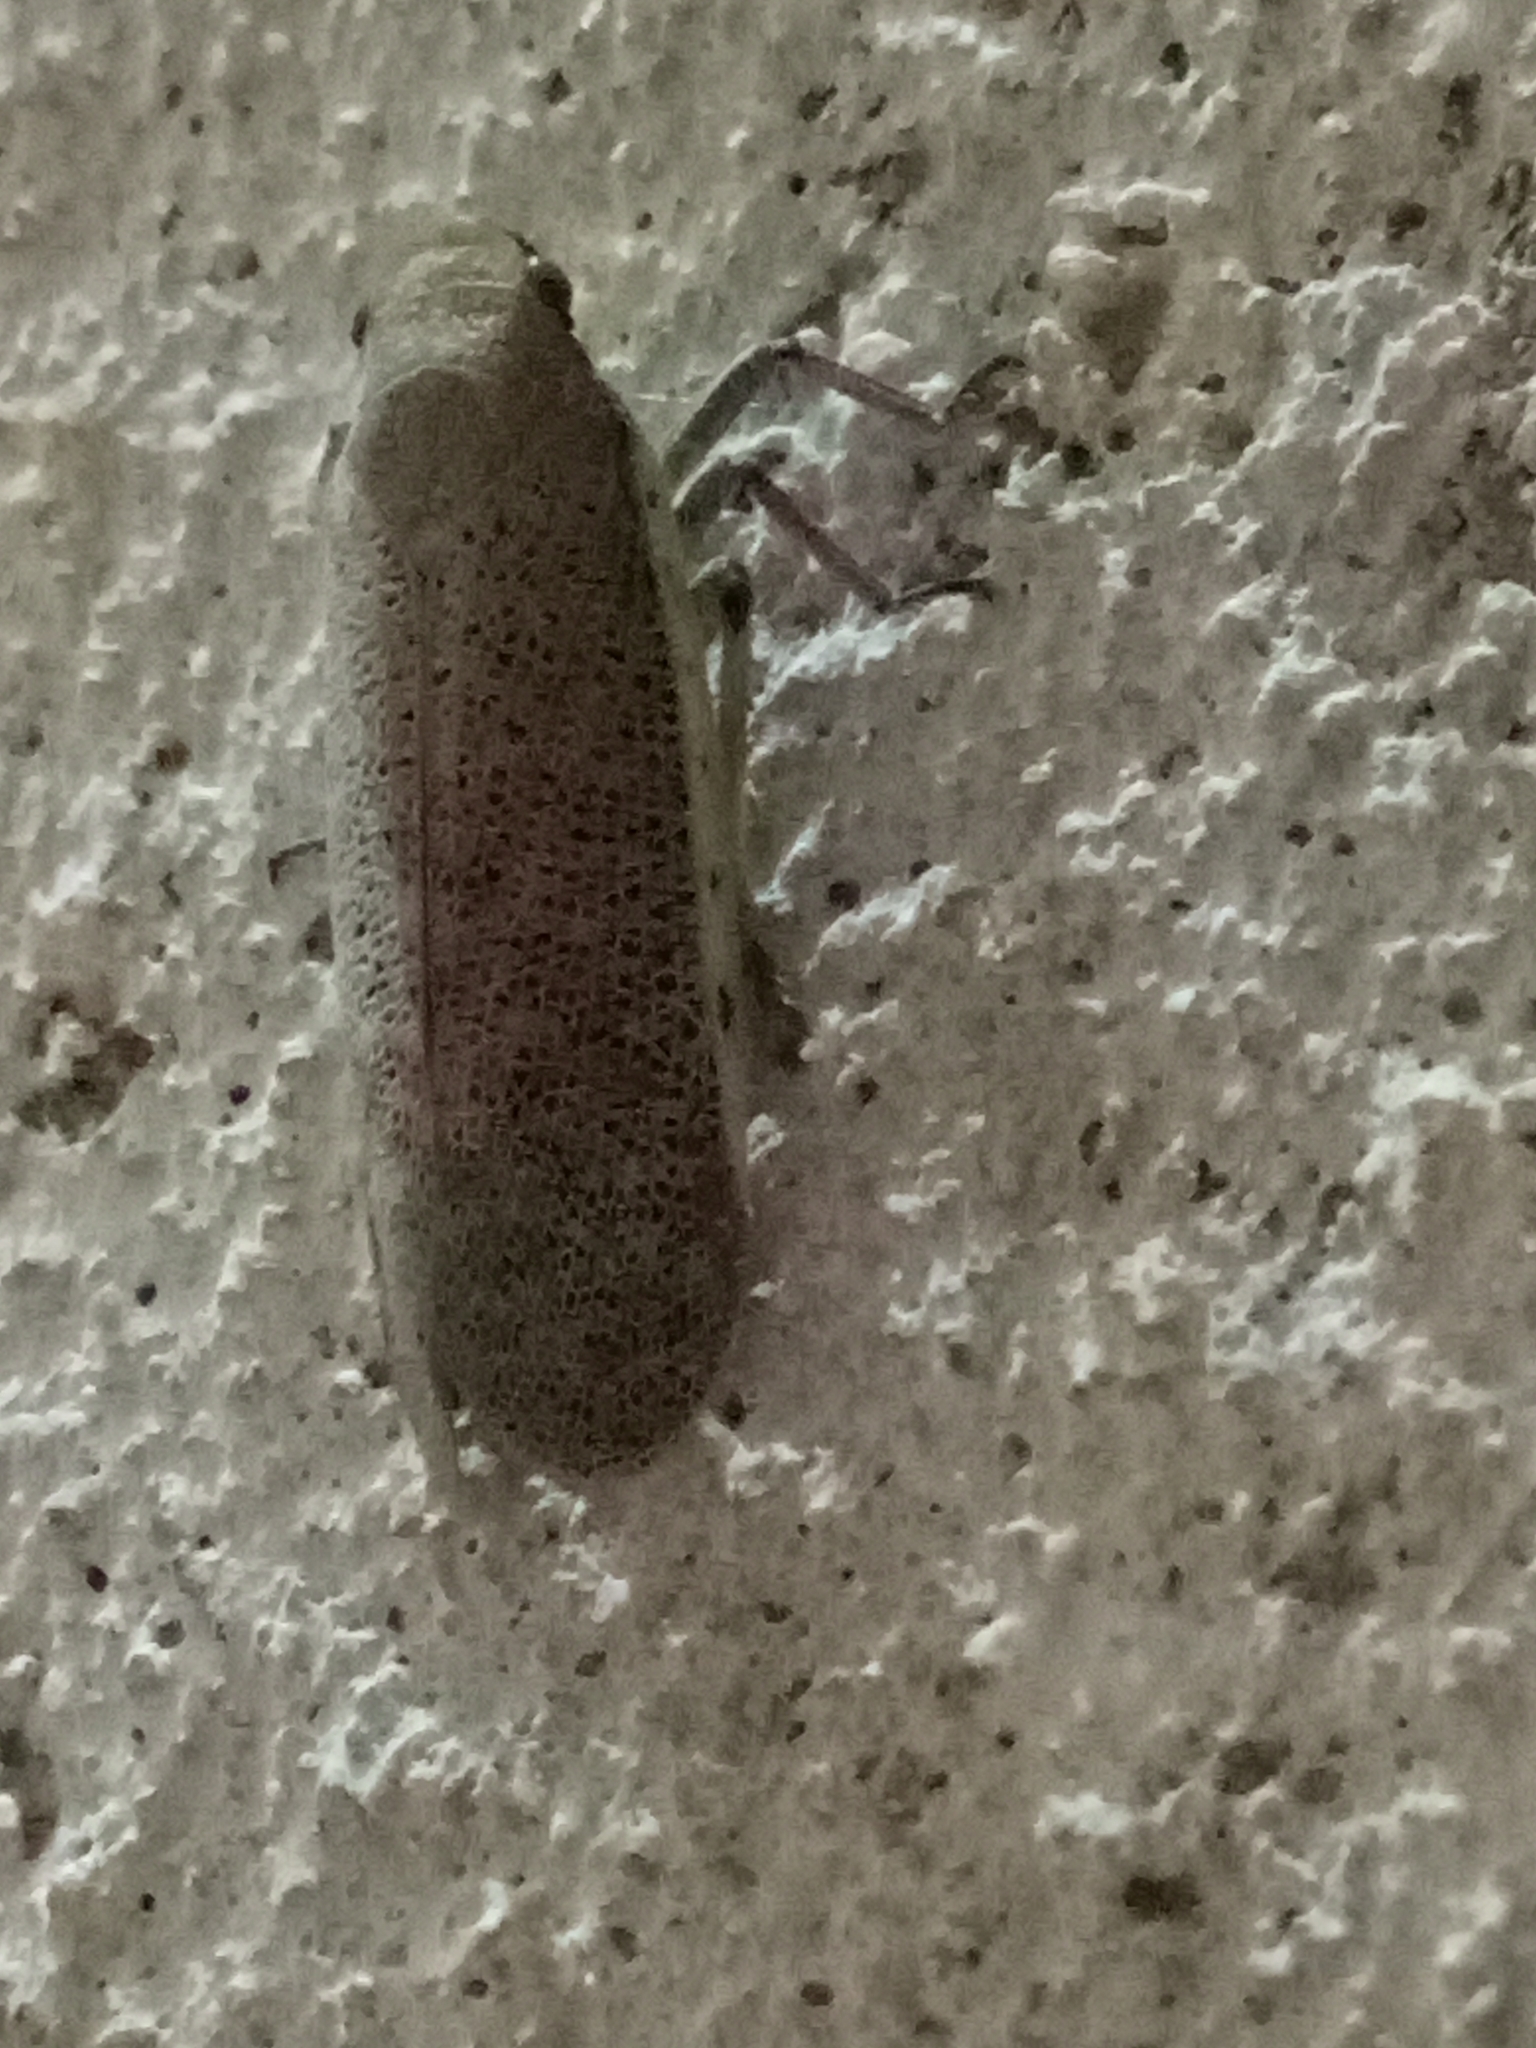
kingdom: Animalia
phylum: Arthropoda
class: Insecta
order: Hemiptera
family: Fulgoridae
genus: Omalocephala
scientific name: Omalocephala cincta
